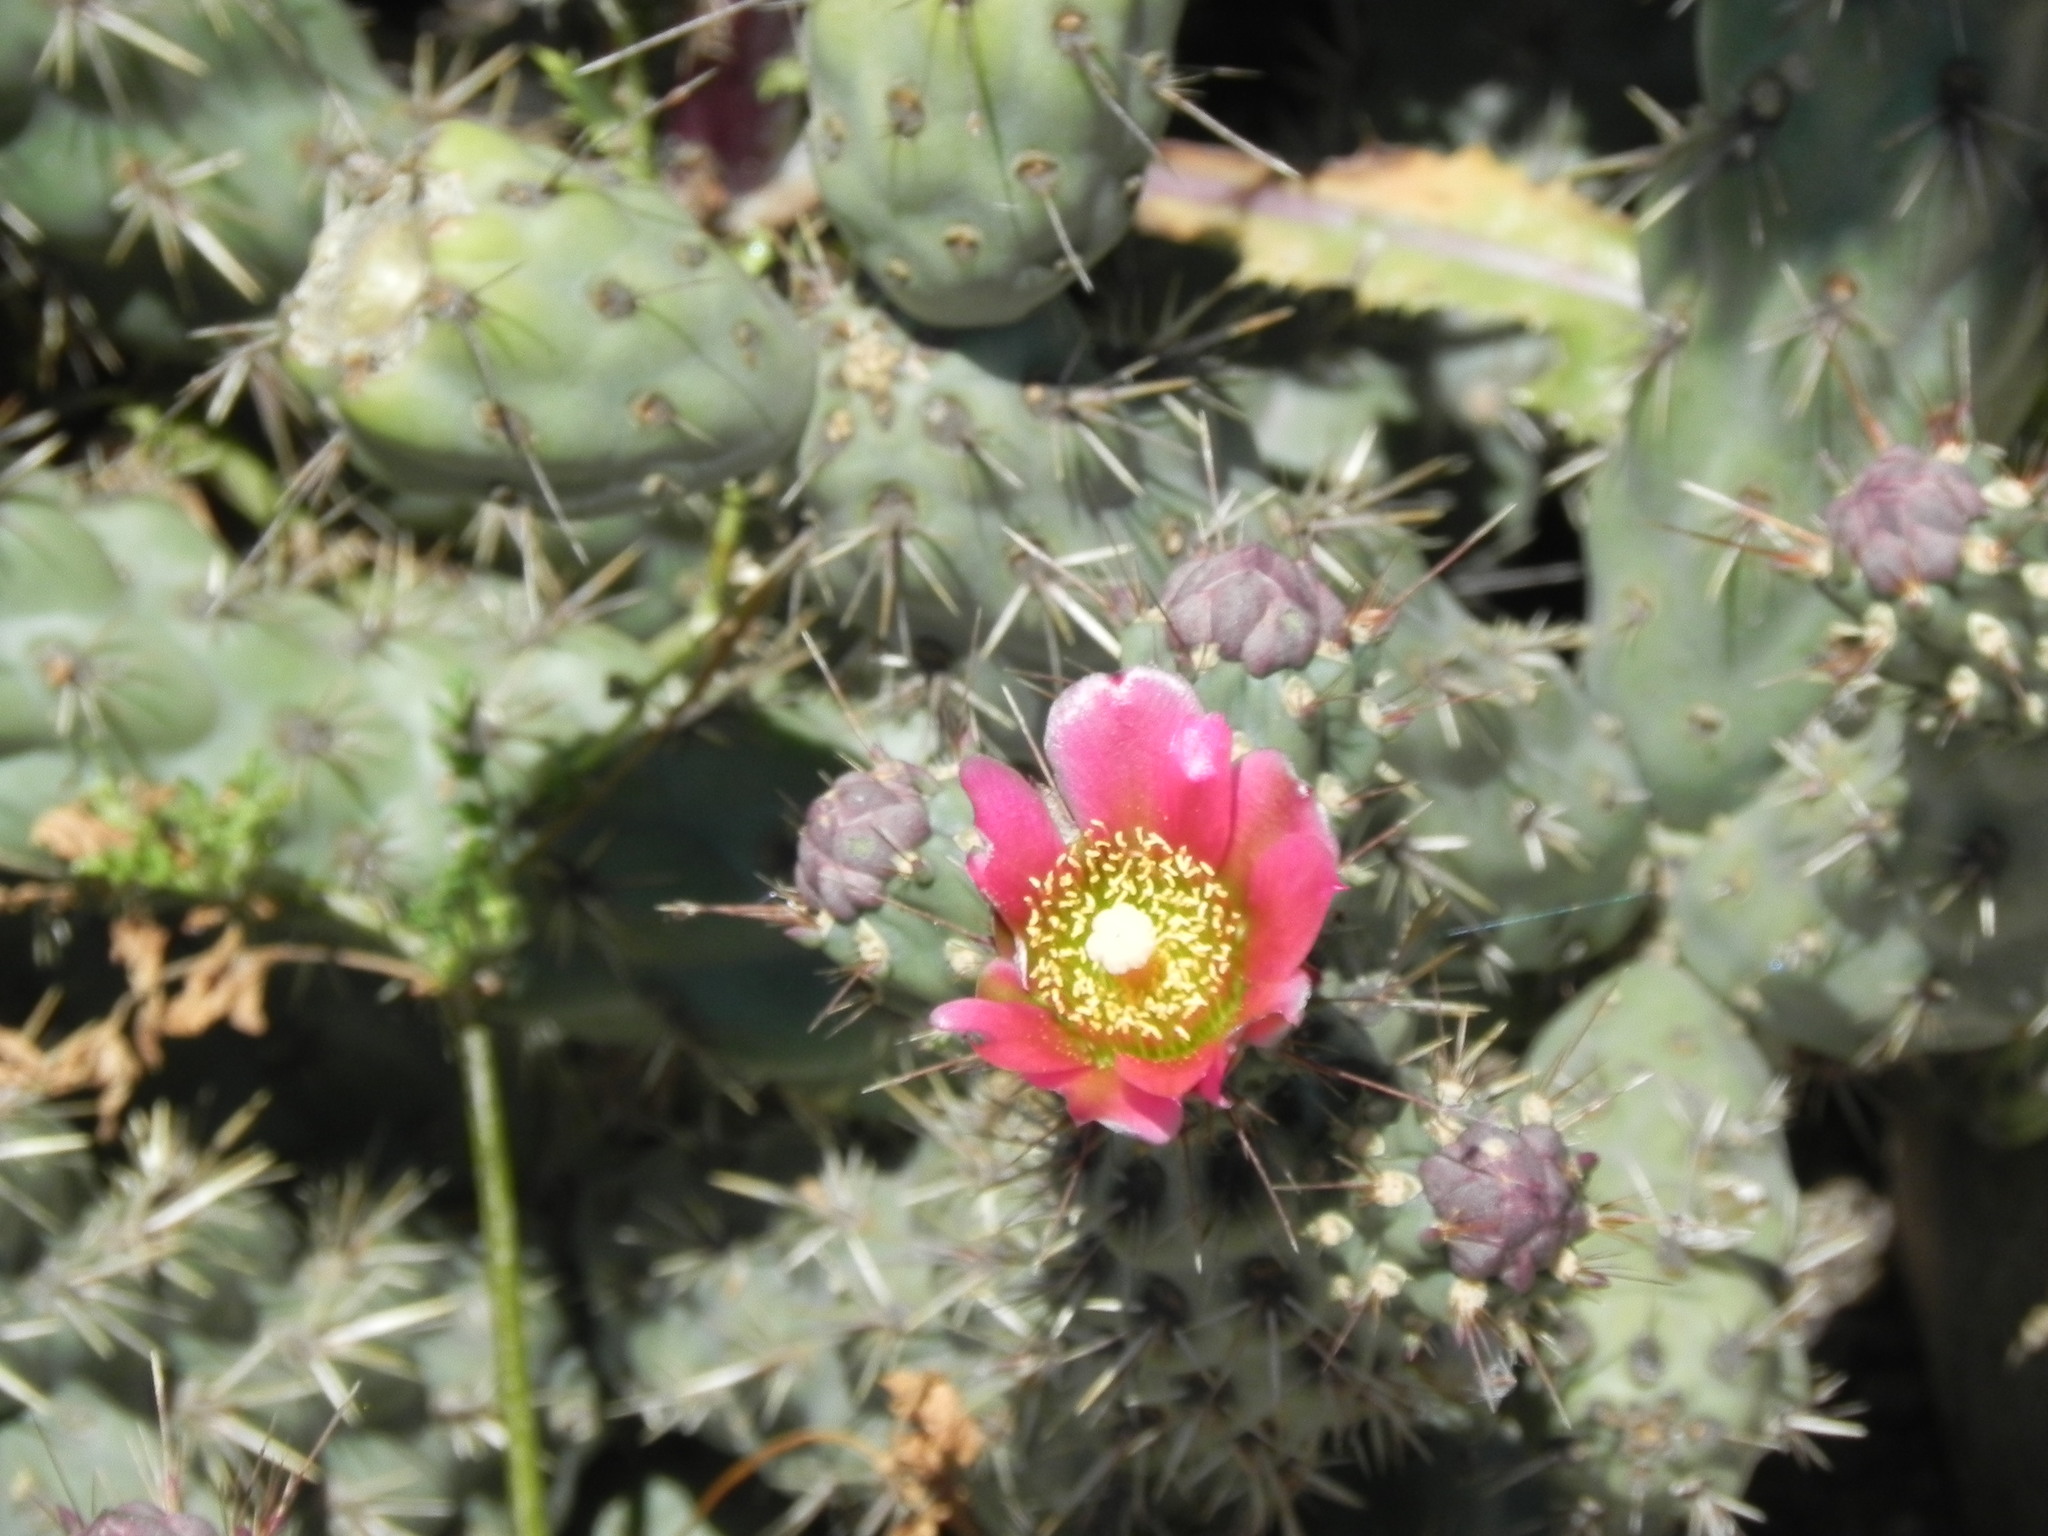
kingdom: Plantae
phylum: Tracheophyta
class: Magnoliopsida
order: Caryophyllales
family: Cactaceae
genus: Cylindropuntia
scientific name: Cylindropuntia prolifera
